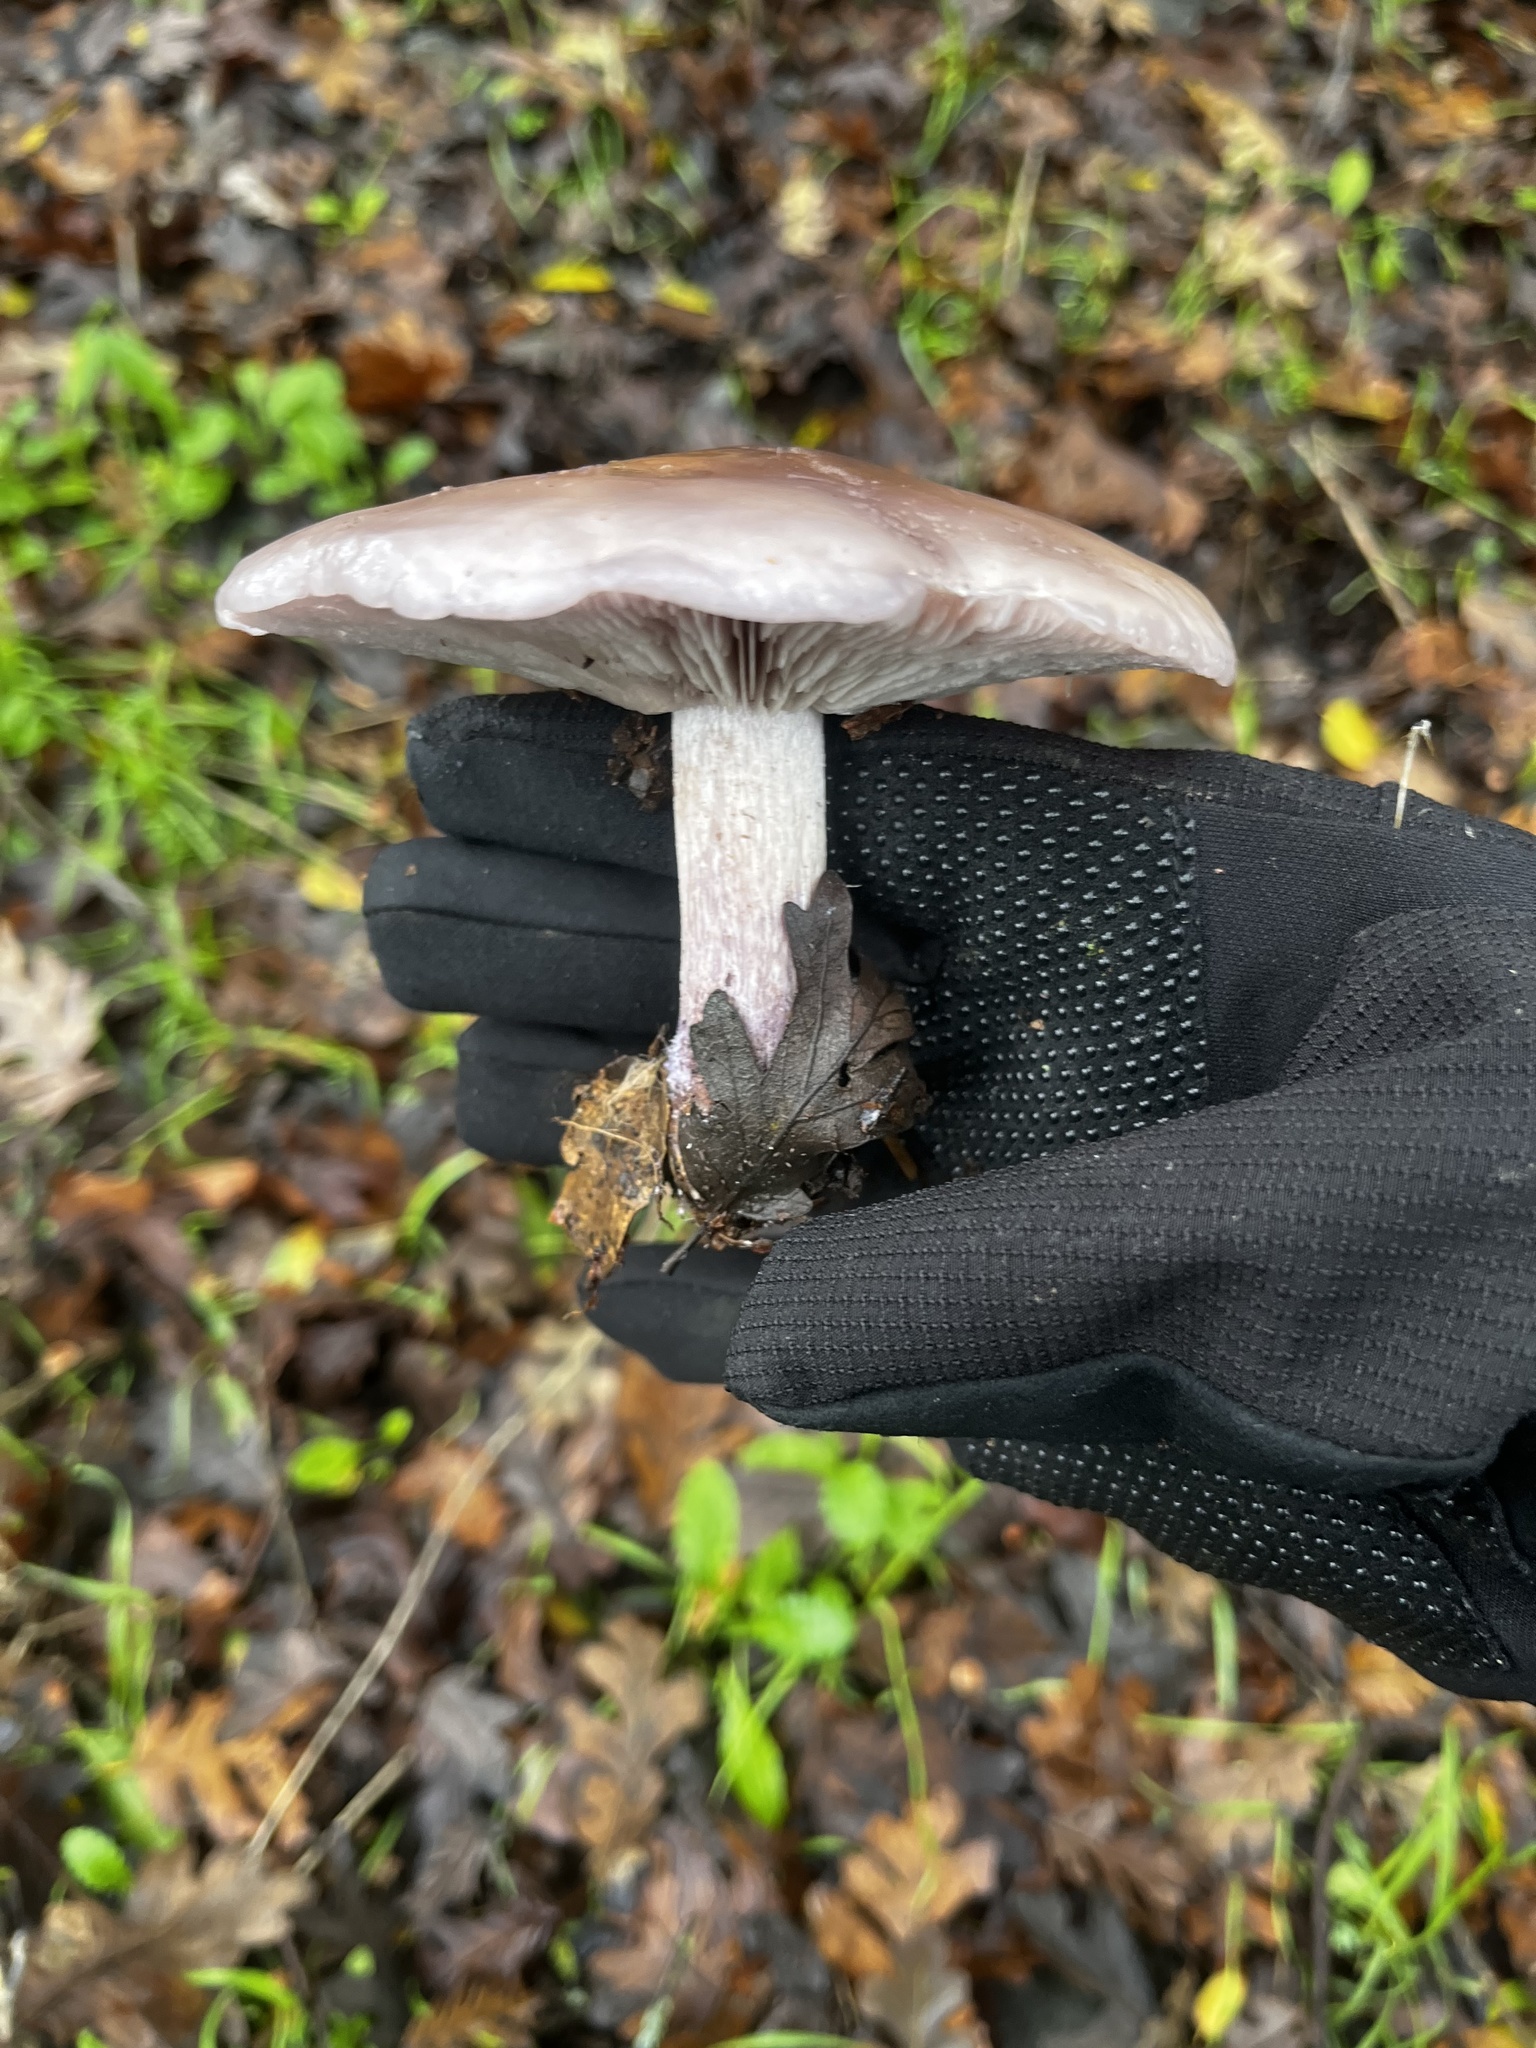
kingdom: Fungi
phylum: Basidiomycota
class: Agaricomycetes
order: Agaricales
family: Tricholomataceae
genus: Collybia
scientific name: Collybia
